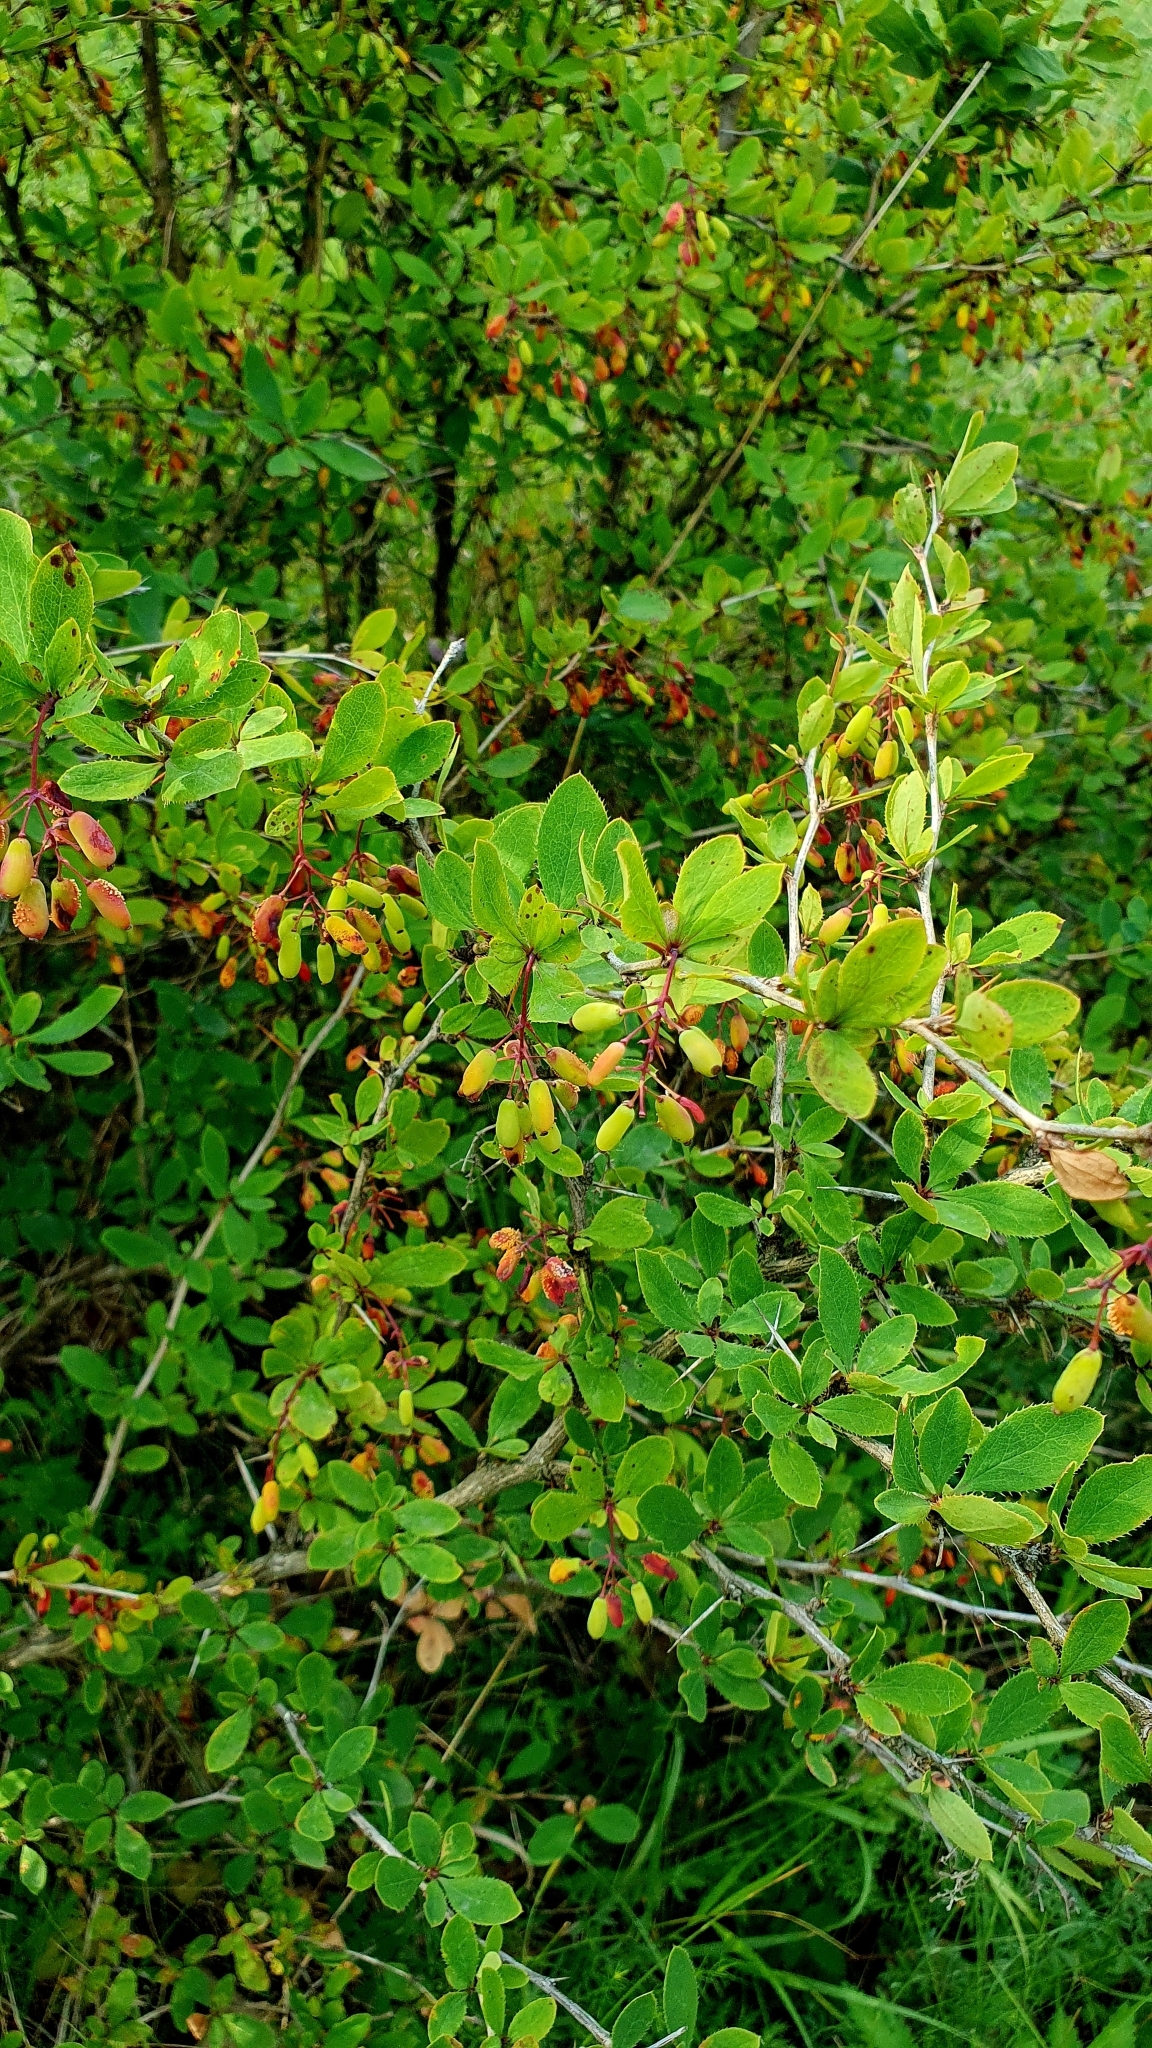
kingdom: Plantae
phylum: Tracheophyta
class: Magnoliopsida
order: Ranunculales
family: Berberidaceae
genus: Berberis
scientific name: Berberis vulgaris
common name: Barberry
